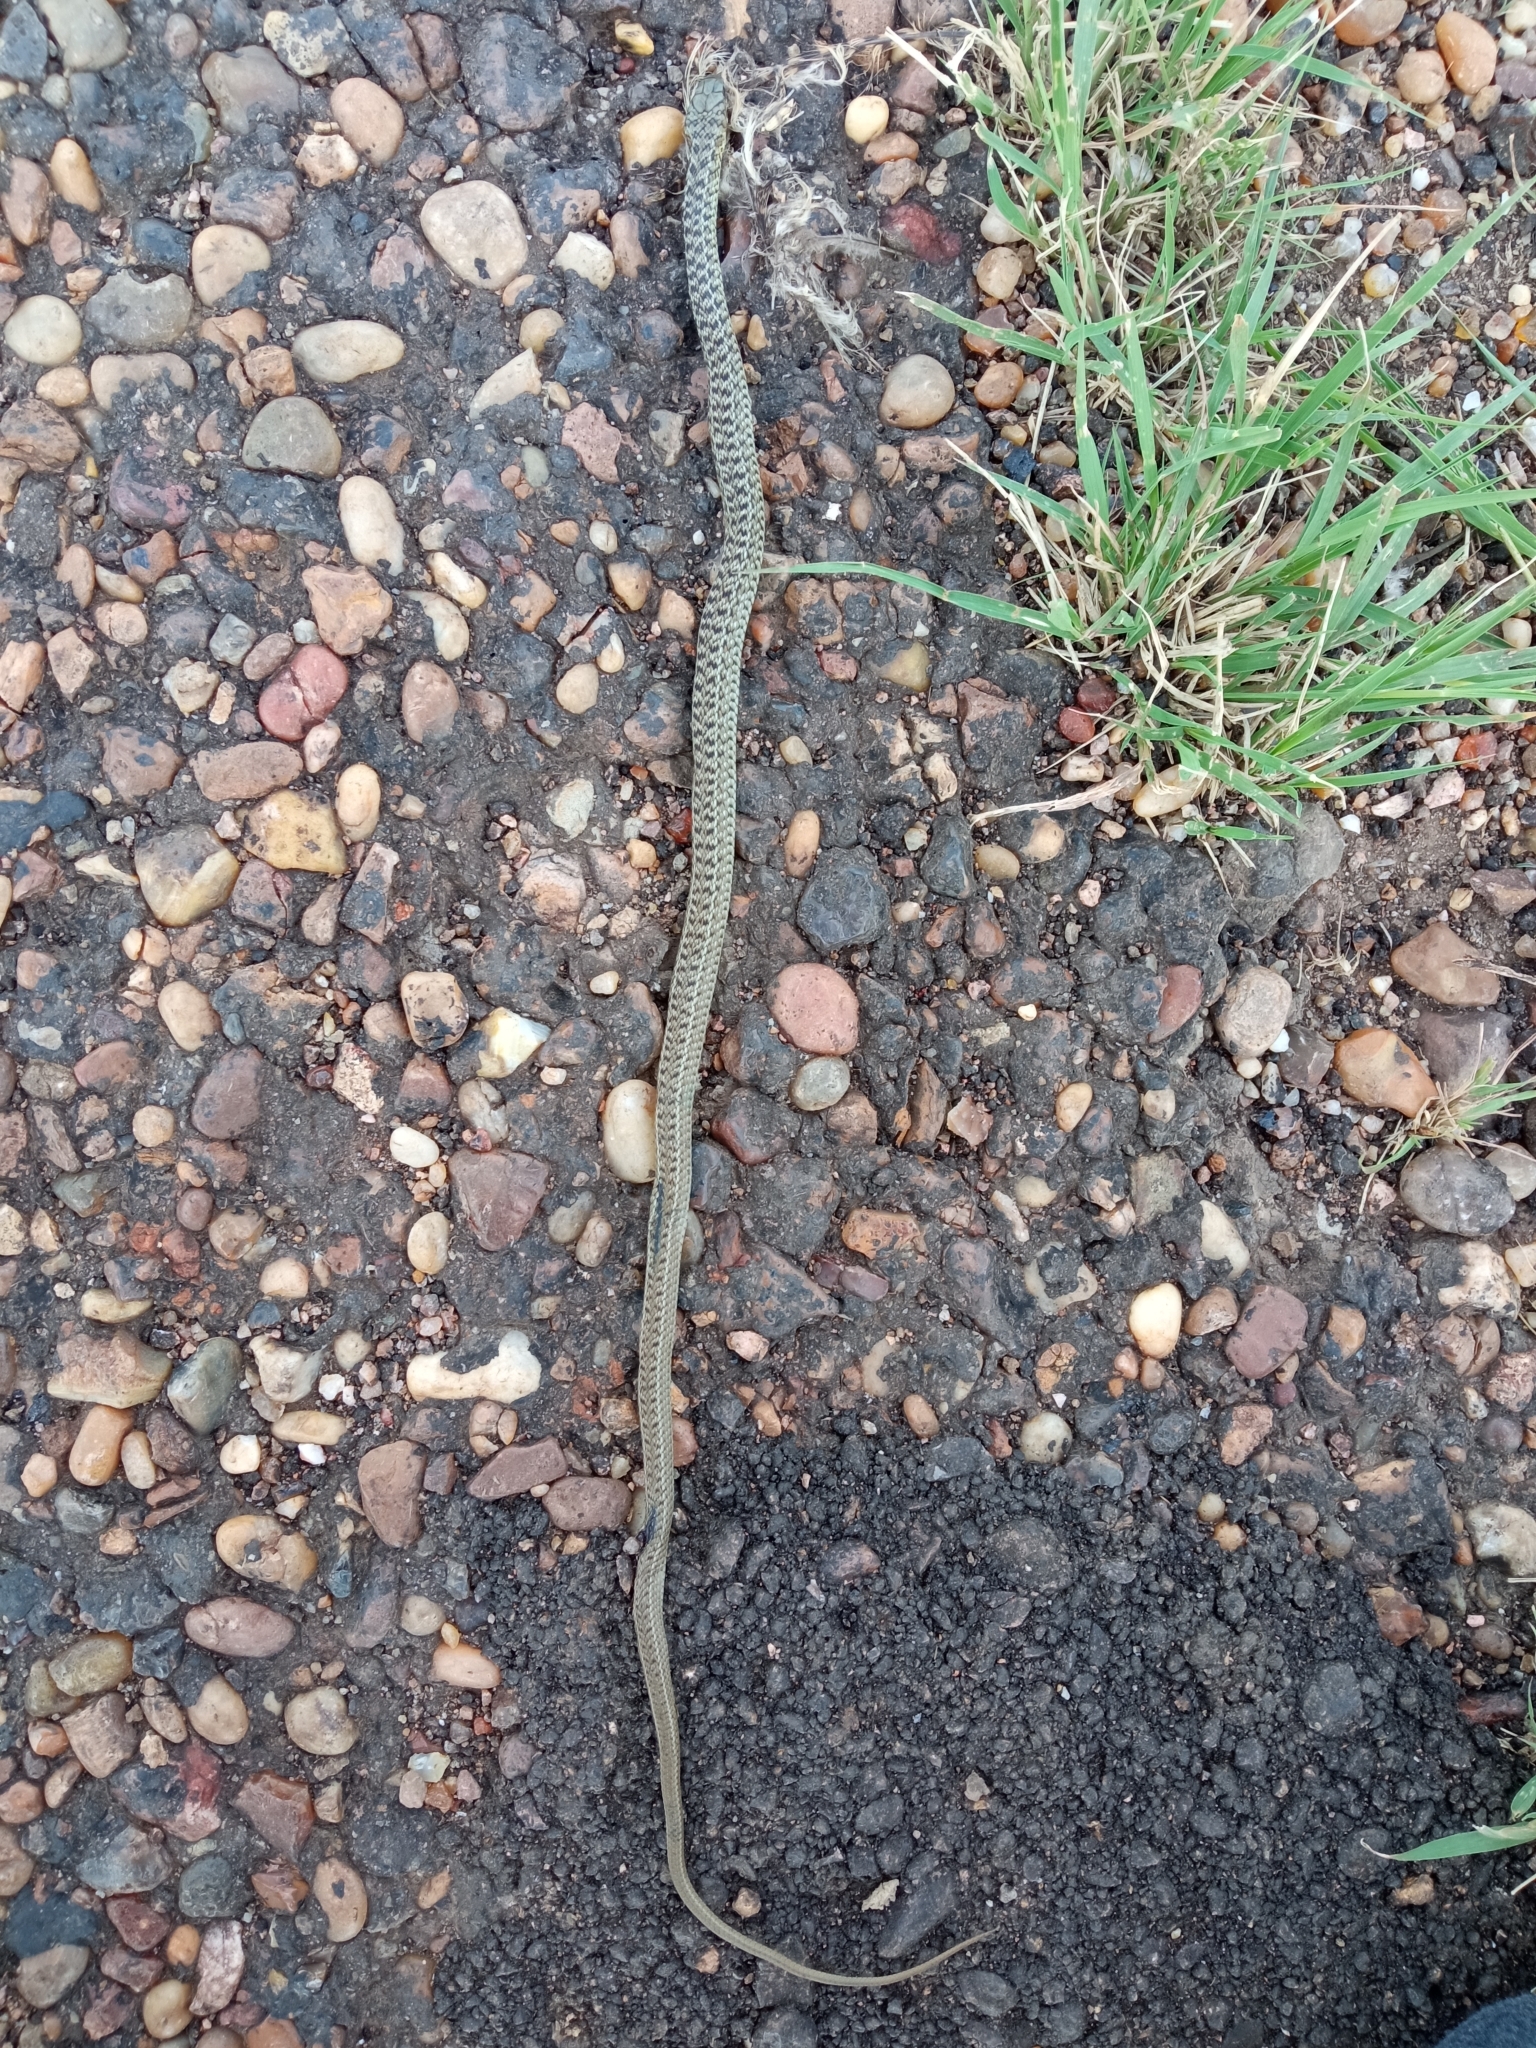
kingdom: Animalia
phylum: Chordata
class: Squamata
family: Colubridae
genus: Philodryas
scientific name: Philodryas patagoniensis
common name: Patagonia green racer
